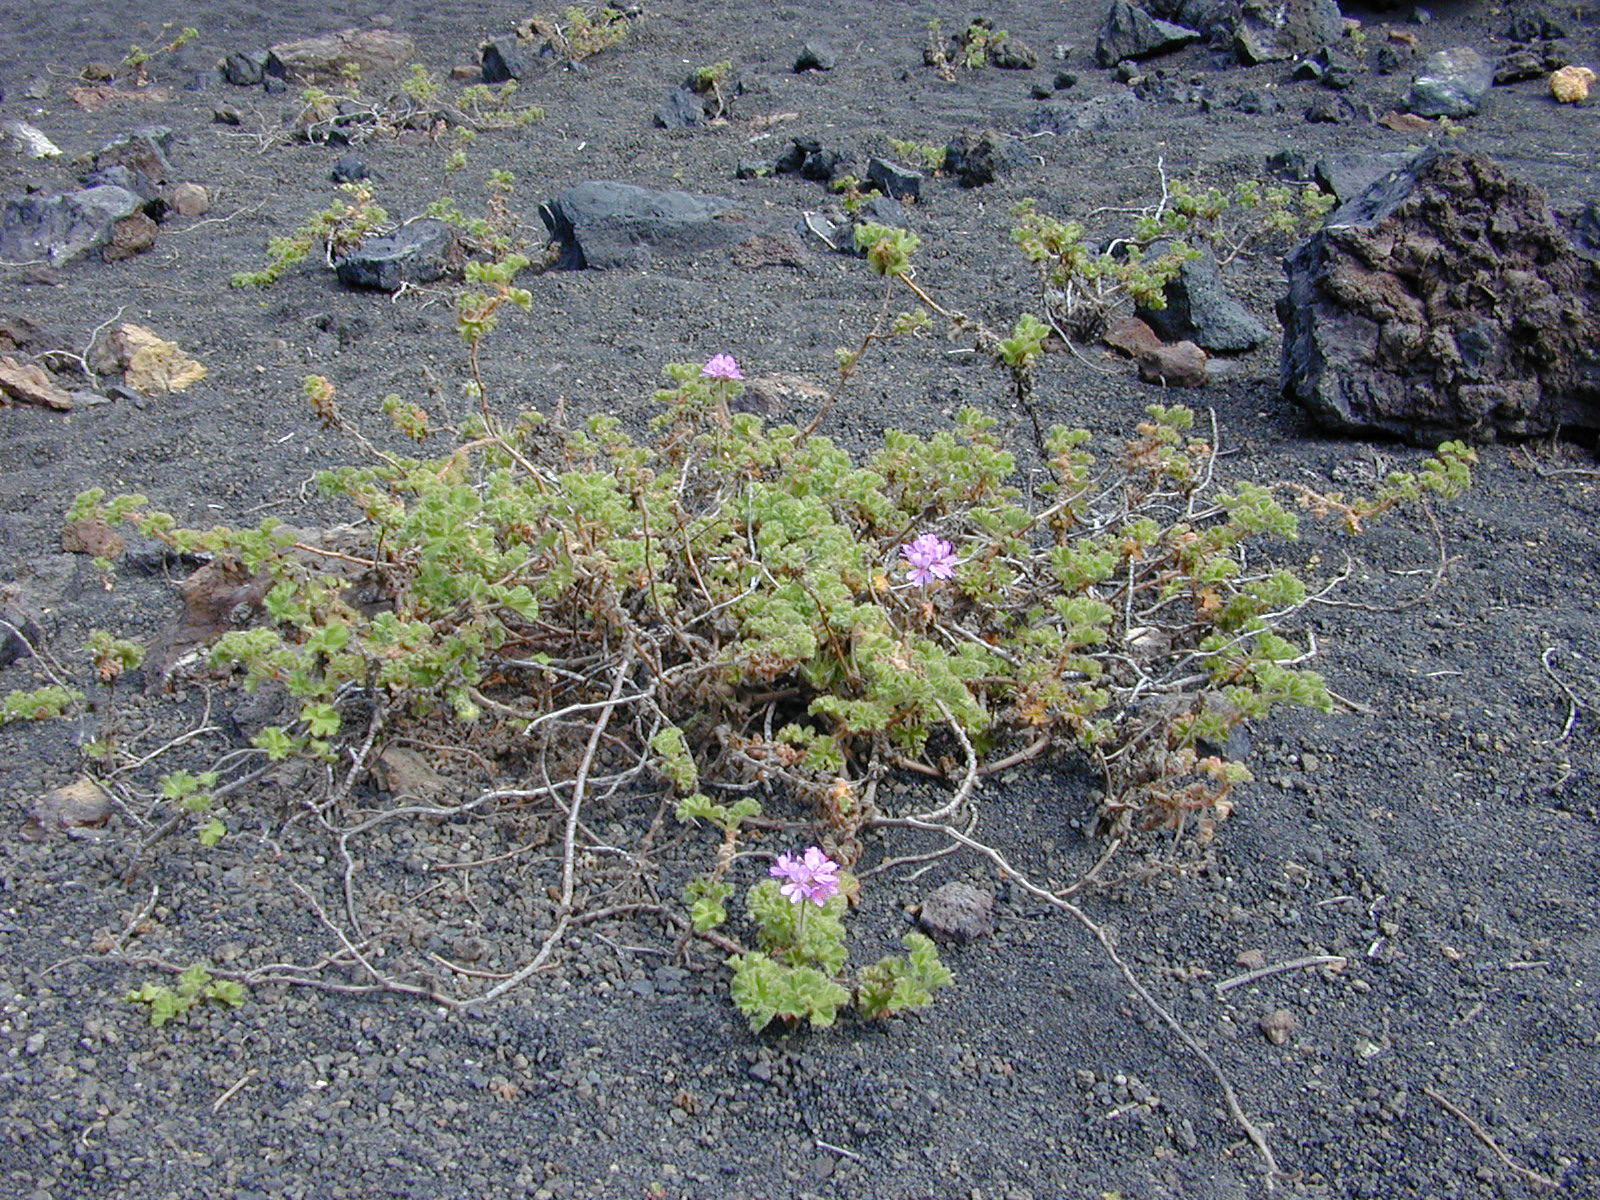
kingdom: Plantae
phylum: Tracheophyta
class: Magnoliopsida
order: Geraniales
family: Geraniaceae
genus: Pelargonium
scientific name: Pelargonium capitatum
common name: Rose scented geranium
